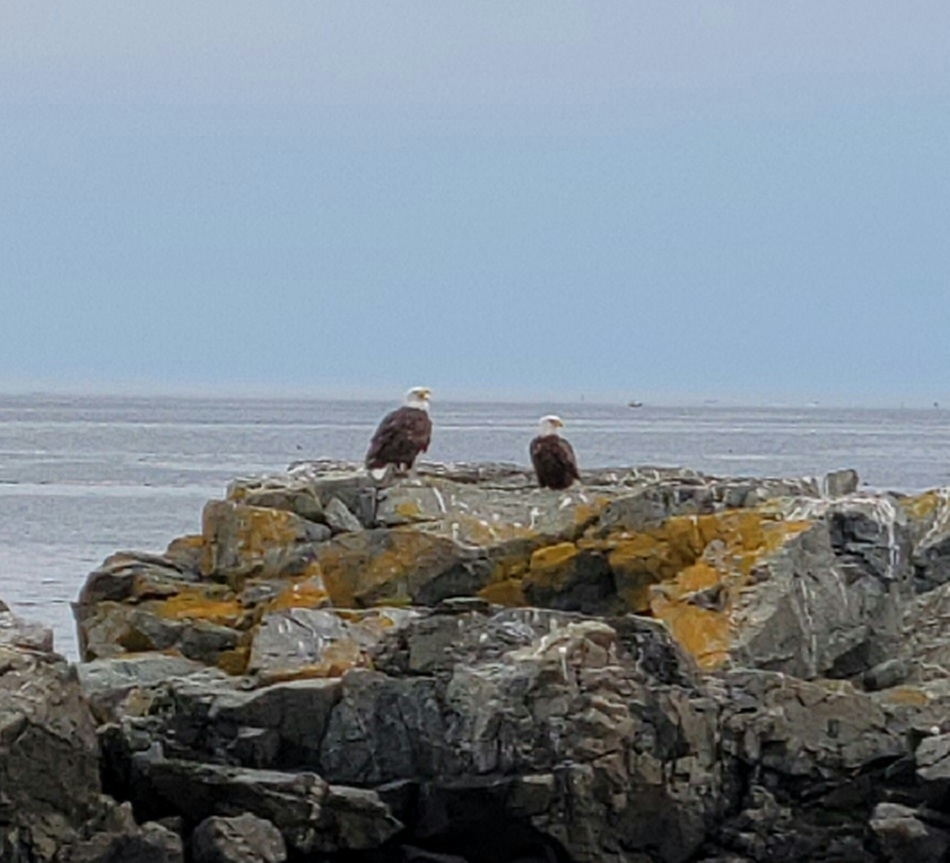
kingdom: Animalia
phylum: Chordata
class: Aves
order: Accipitriformes
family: Accipitridae
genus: Haliaeetus
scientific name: Haliaeetus leucocephalus
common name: Bald eagle
